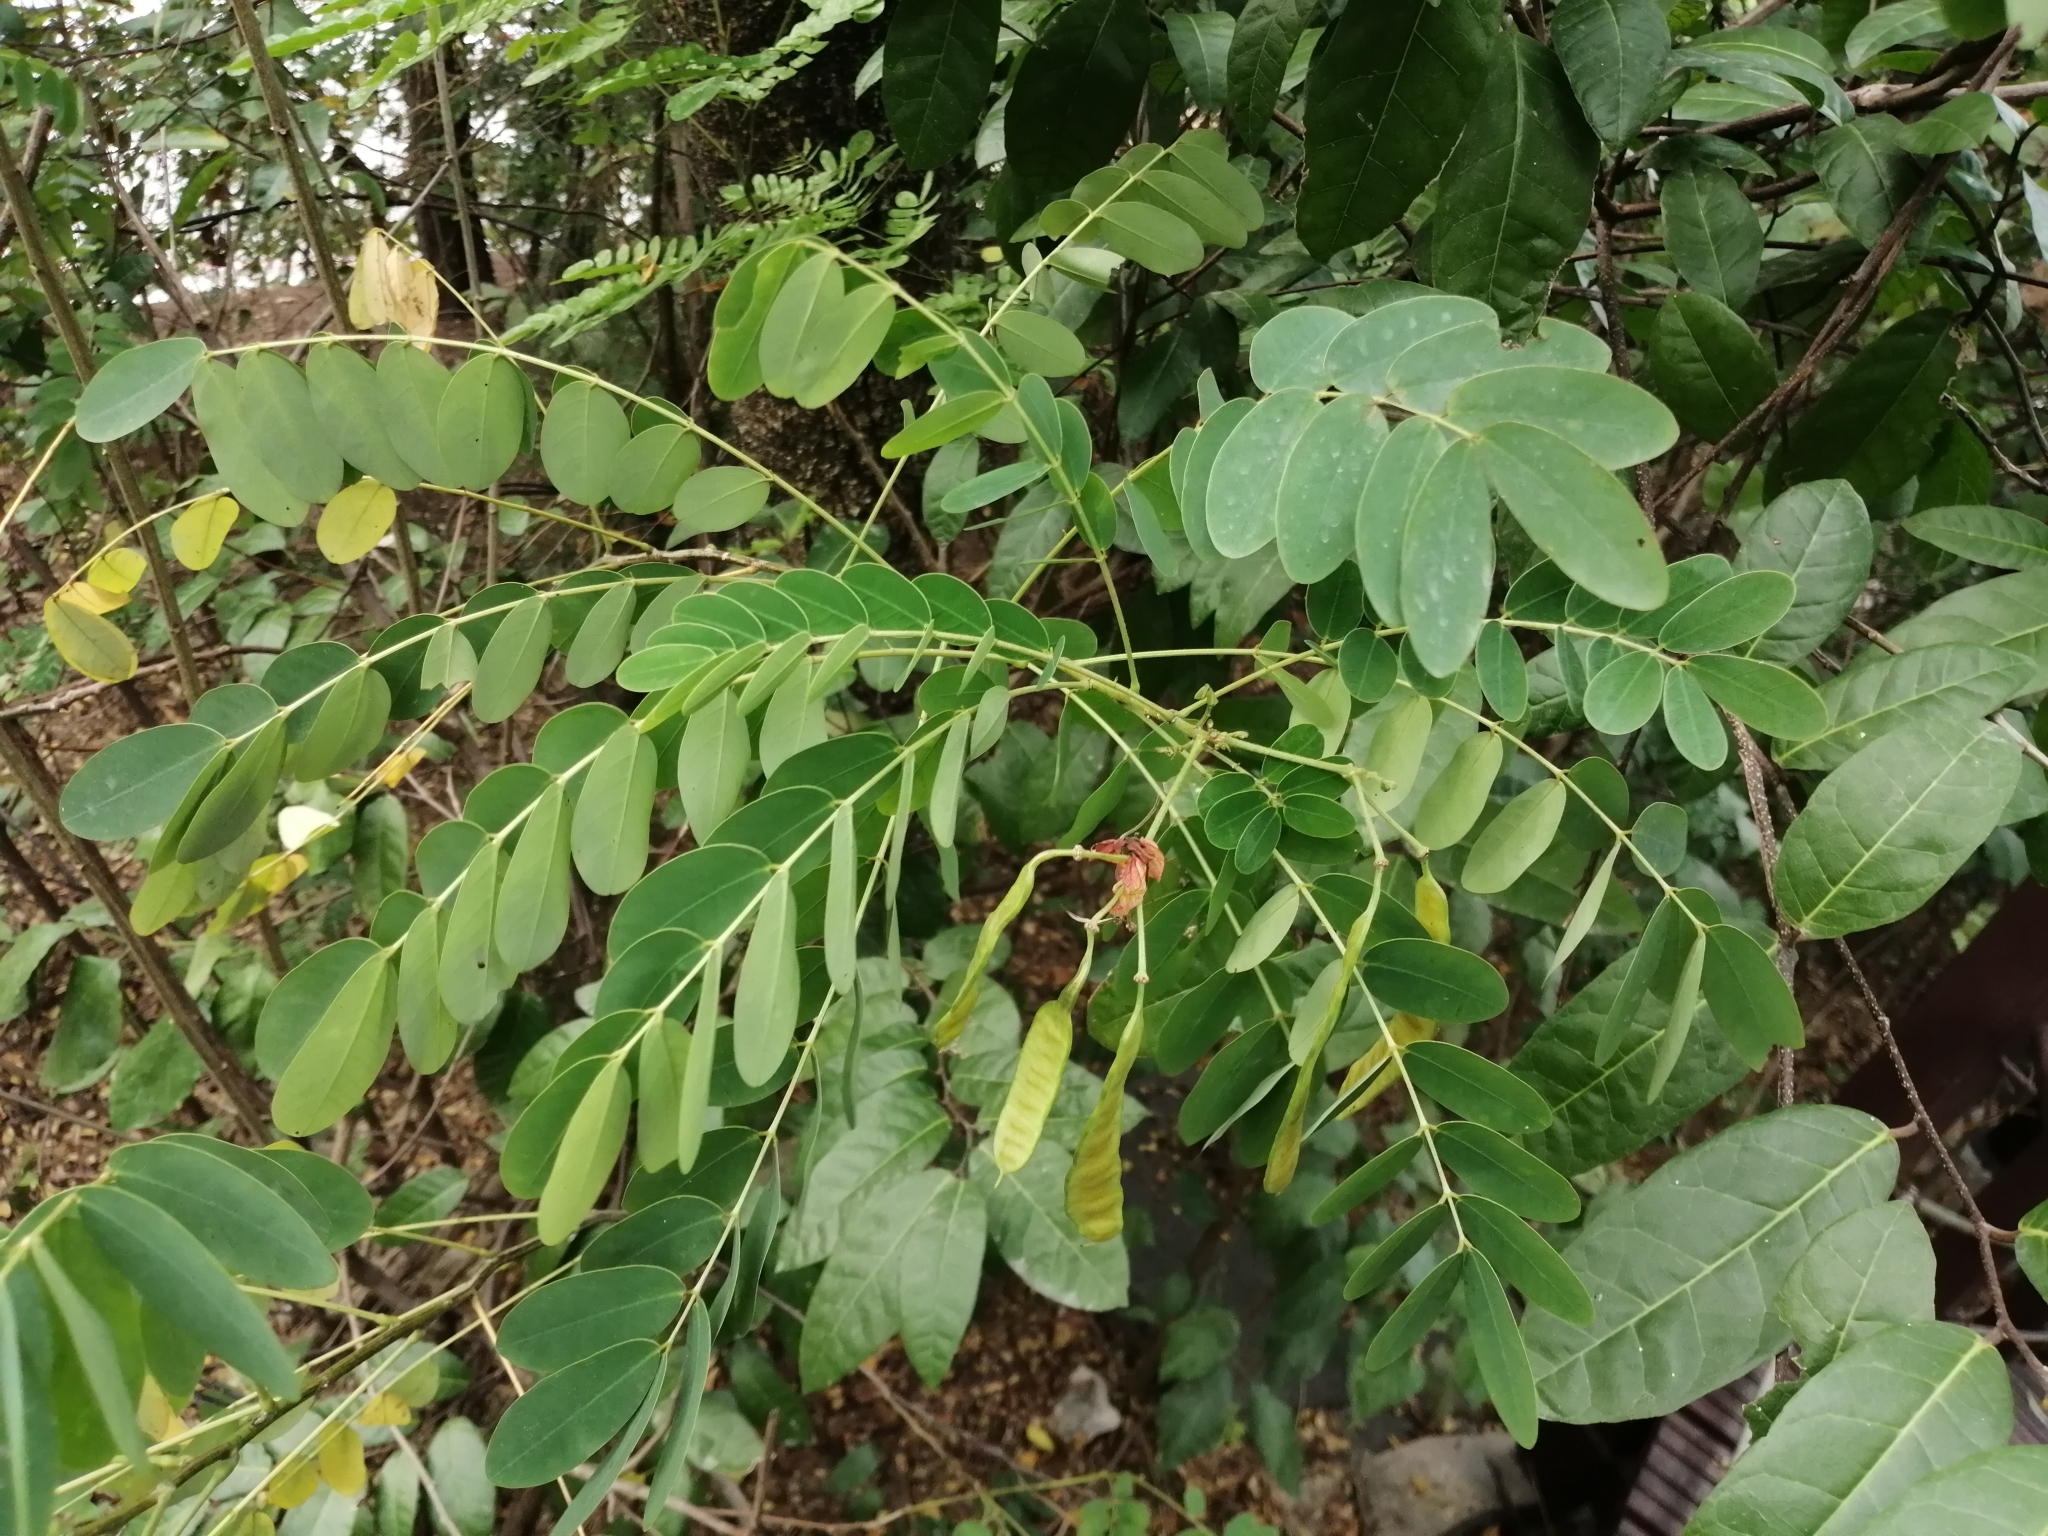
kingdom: Plantae
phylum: Tracheophyta
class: Magnoliopsida
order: Fabales
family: Fabaceae
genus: Albizia
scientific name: Albizia lebbeck
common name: Woman's tongue
